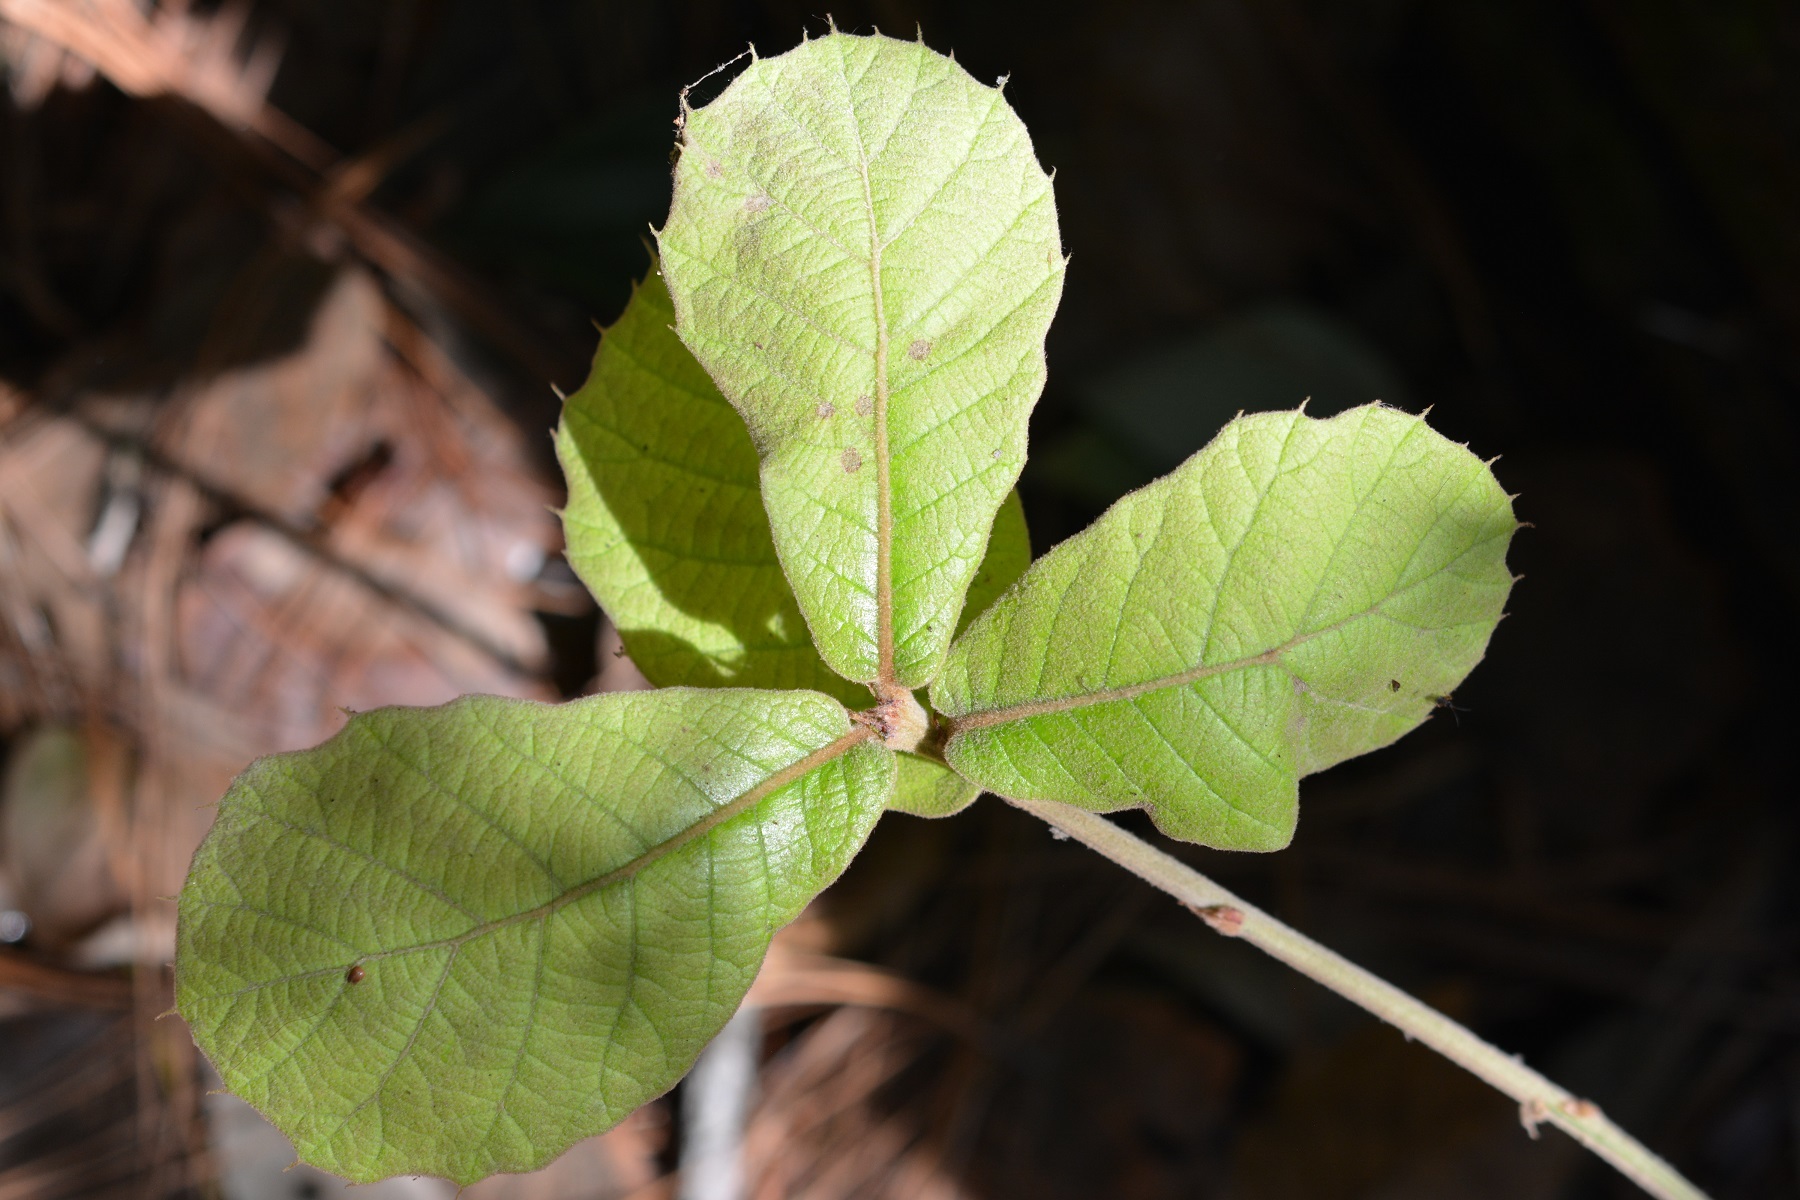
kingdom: Plantae
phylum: Tracheophyta
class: Magnoliopsida
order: Fagales
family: Fagaceae
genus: Quercus
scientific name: Quercus crassifolia
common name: Leather leaf mexican oak
